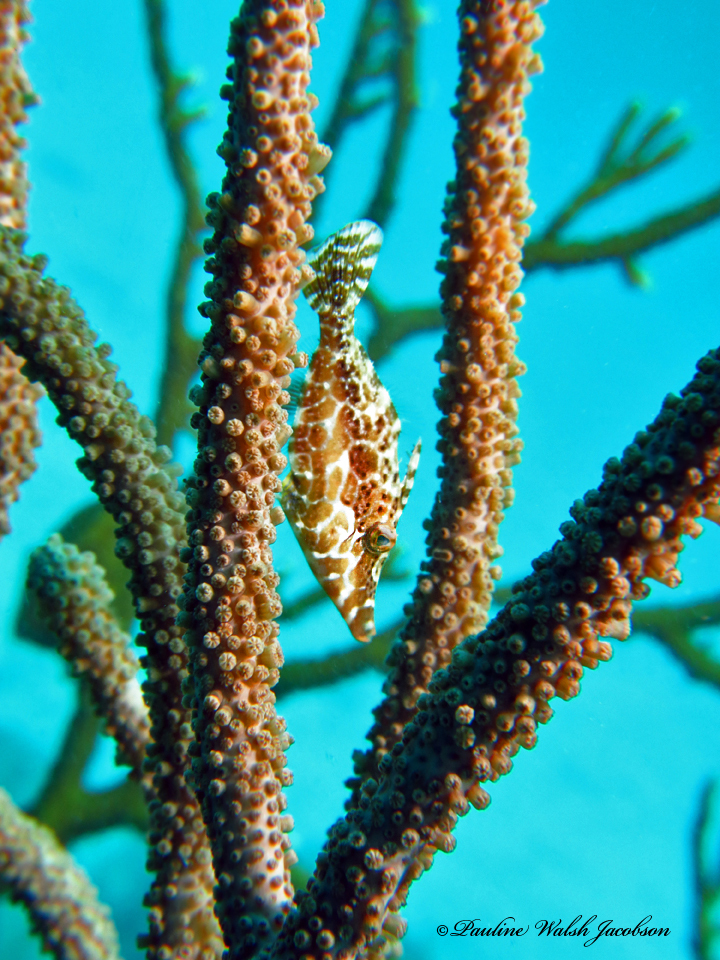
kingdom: Animalia
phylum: Chordata
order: Tetraodontiformes
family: Monacanthidae
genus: Monacanthus
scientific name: Monacanthus tuckeri
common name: Slender filefish
